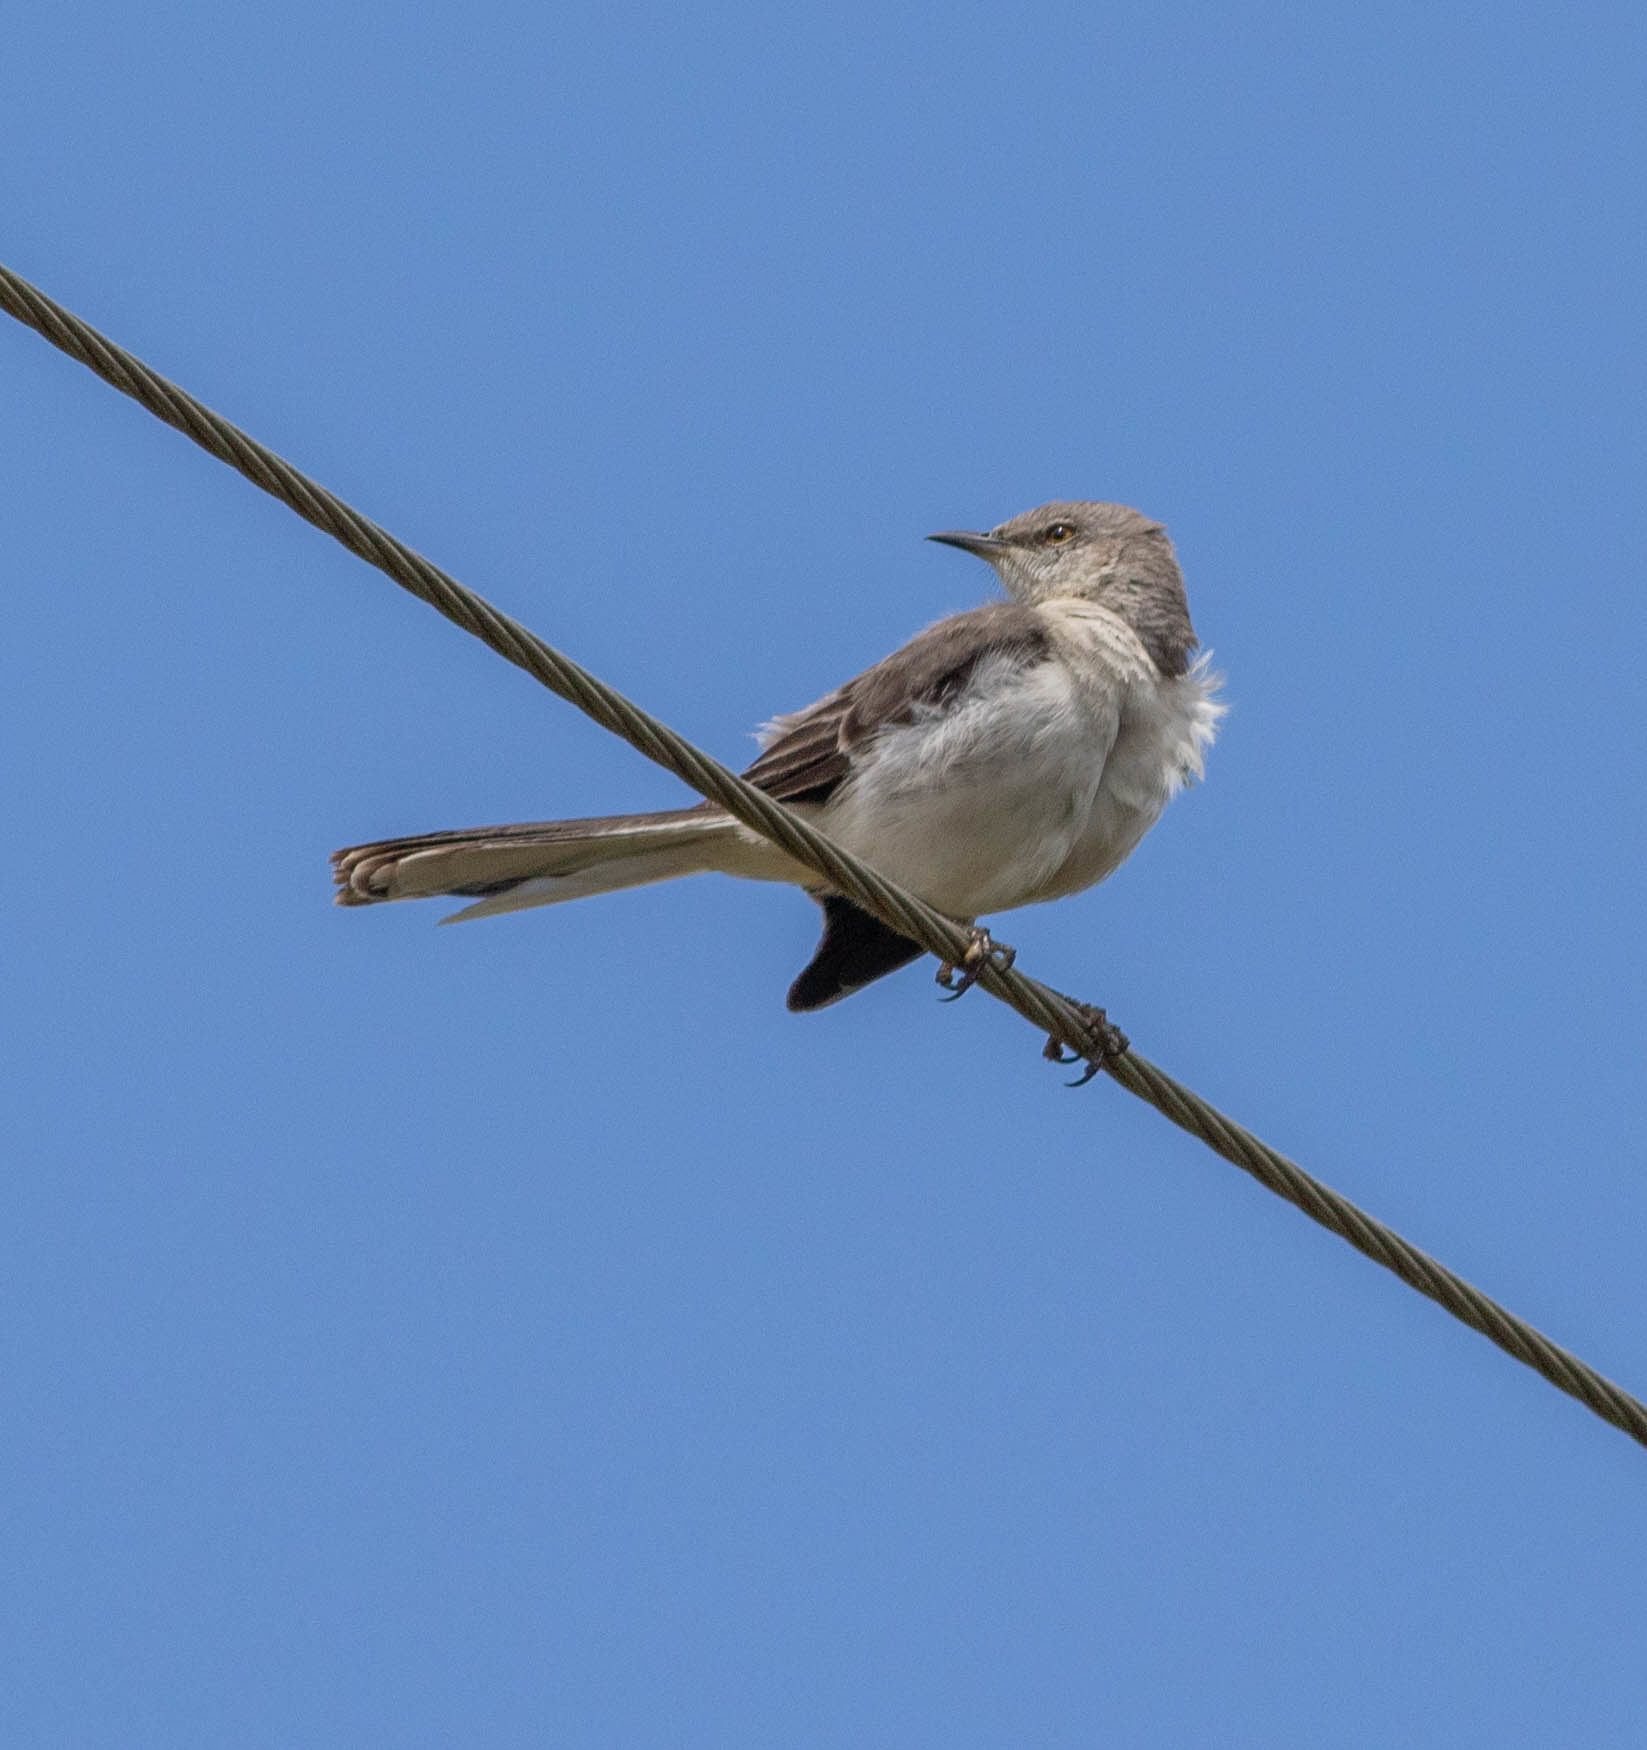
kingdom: Animalia
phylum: Chordata
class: Aves
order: Passeriformes
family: Mimidae
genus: Mimus
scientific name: Mimus polyglottos
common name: Northern mockingbird
